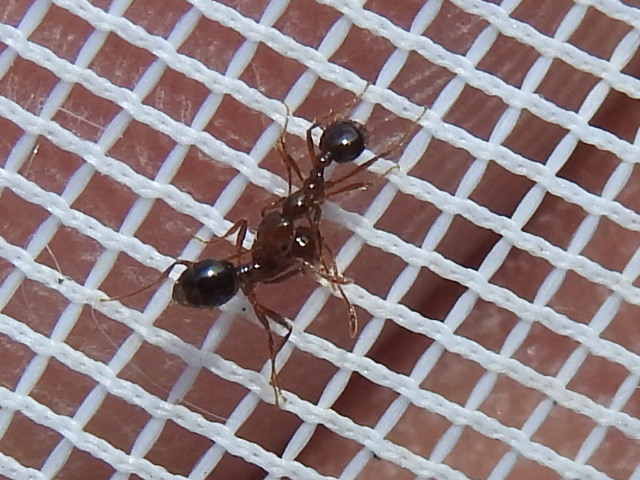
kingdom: Animalia
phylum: Arthropoda
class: Insecta
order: Hymenoptera
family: Formicidae
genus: Solenopsis
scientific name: Solenopsis invicta
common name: Red imported fire ant
